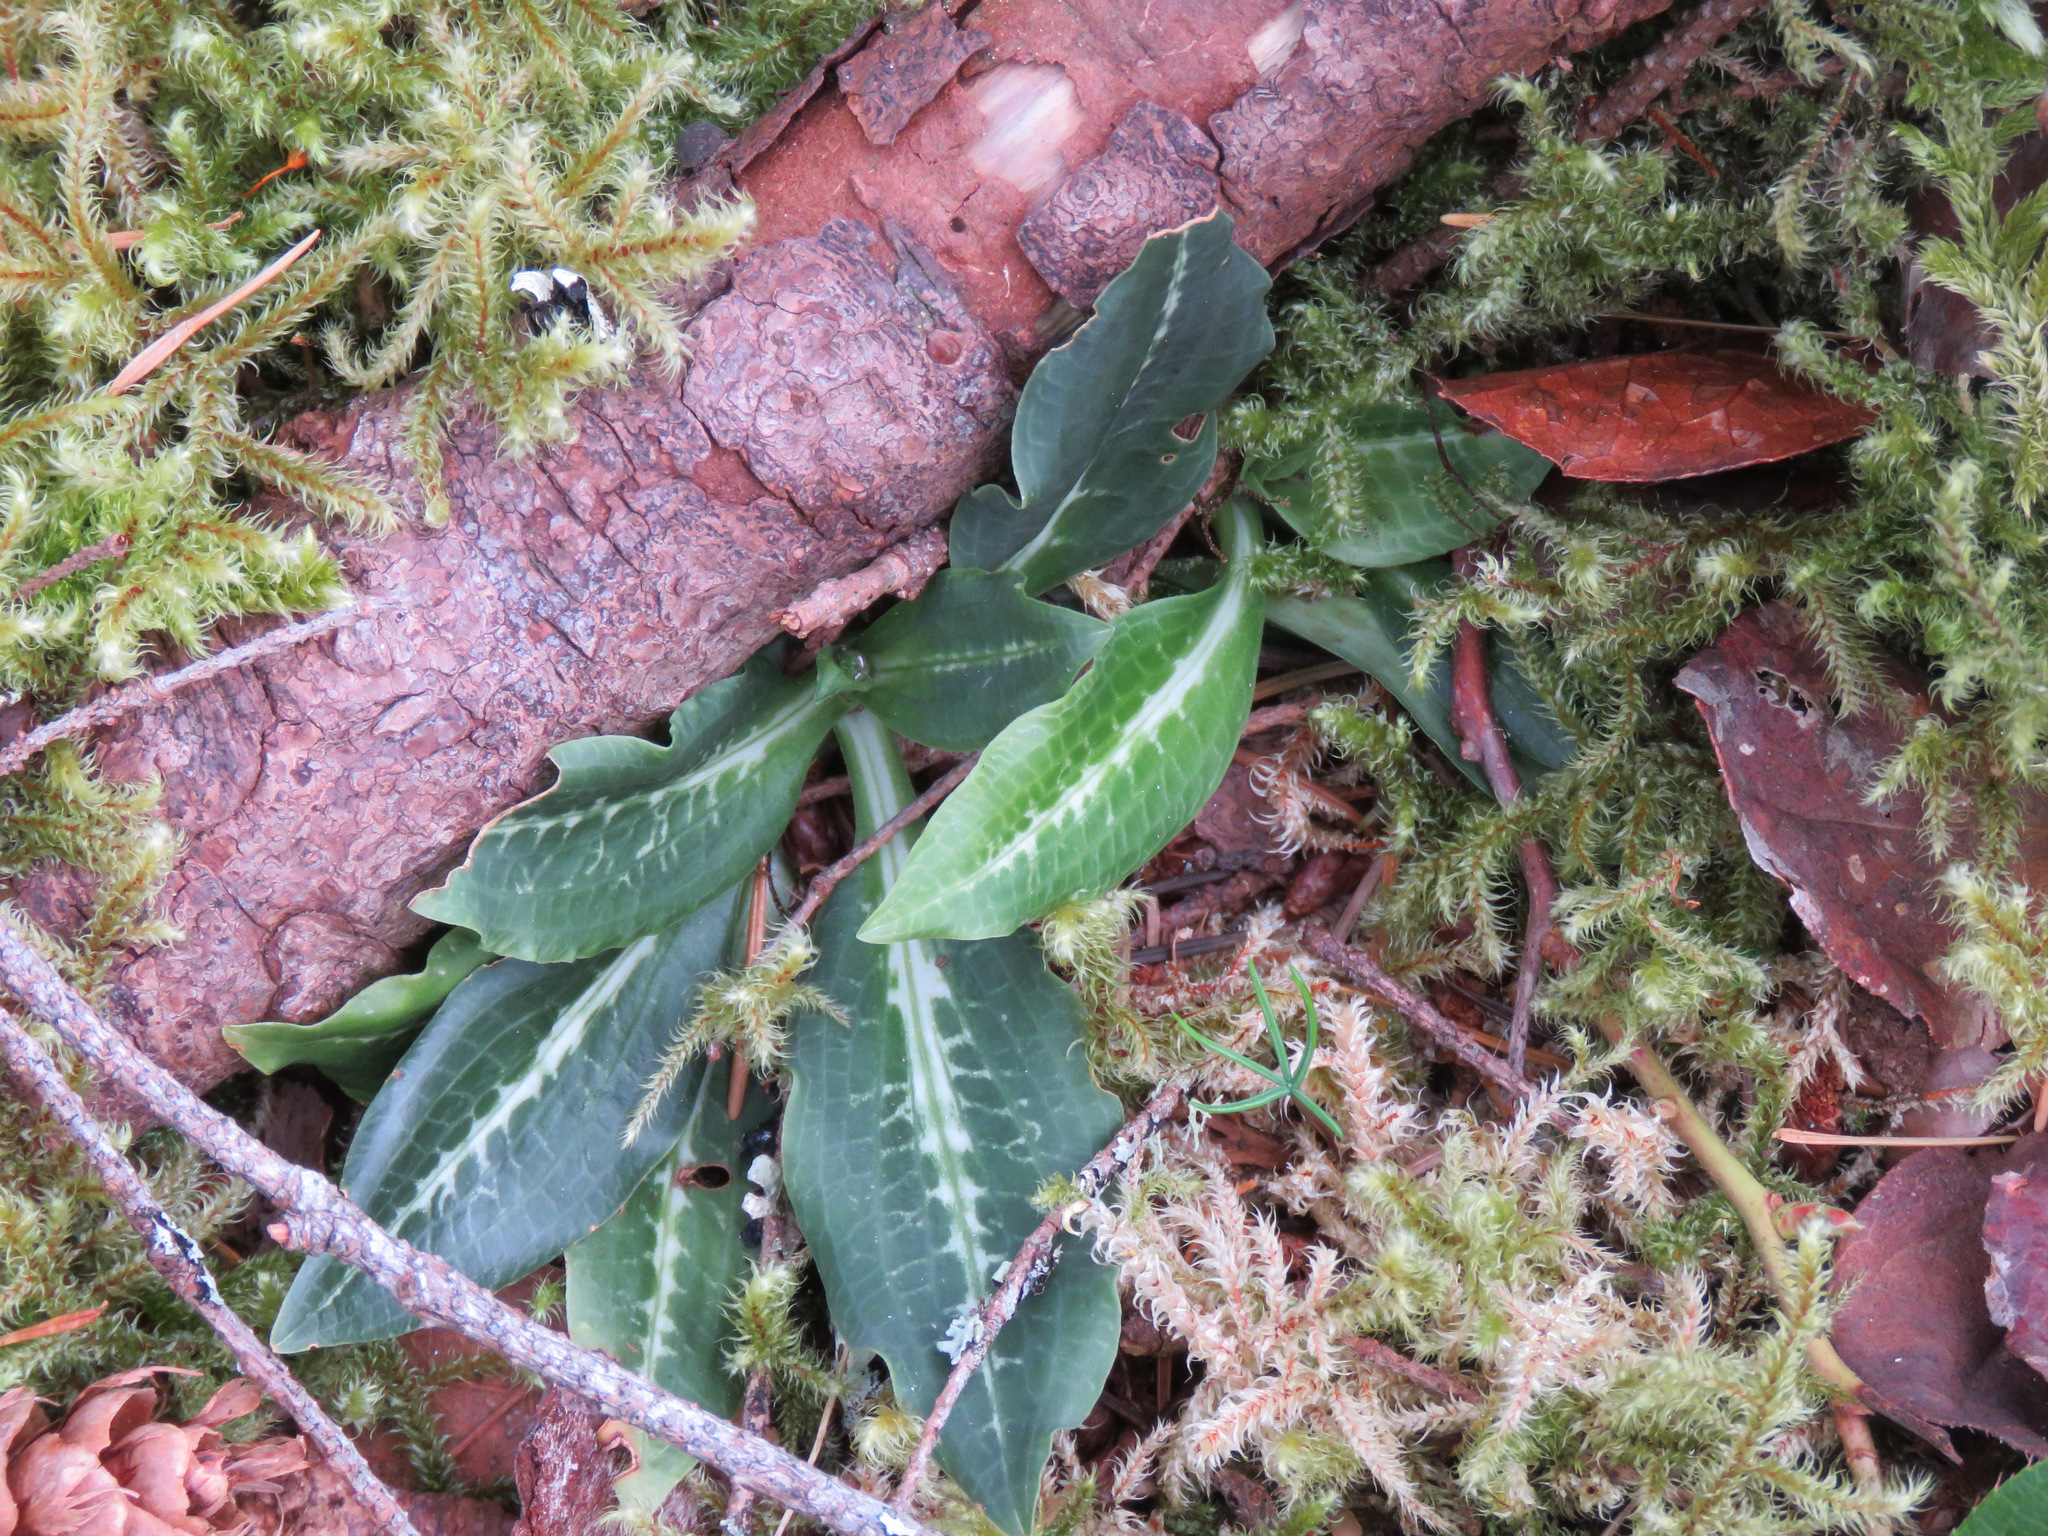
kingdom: Plantae
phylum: Tracheophyta
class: Liliopsida
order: Asparagales
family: Orchidaceae
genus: Goodyera
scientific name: Goodyera oblongifolia
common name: Giant rattlesnake-plantain
